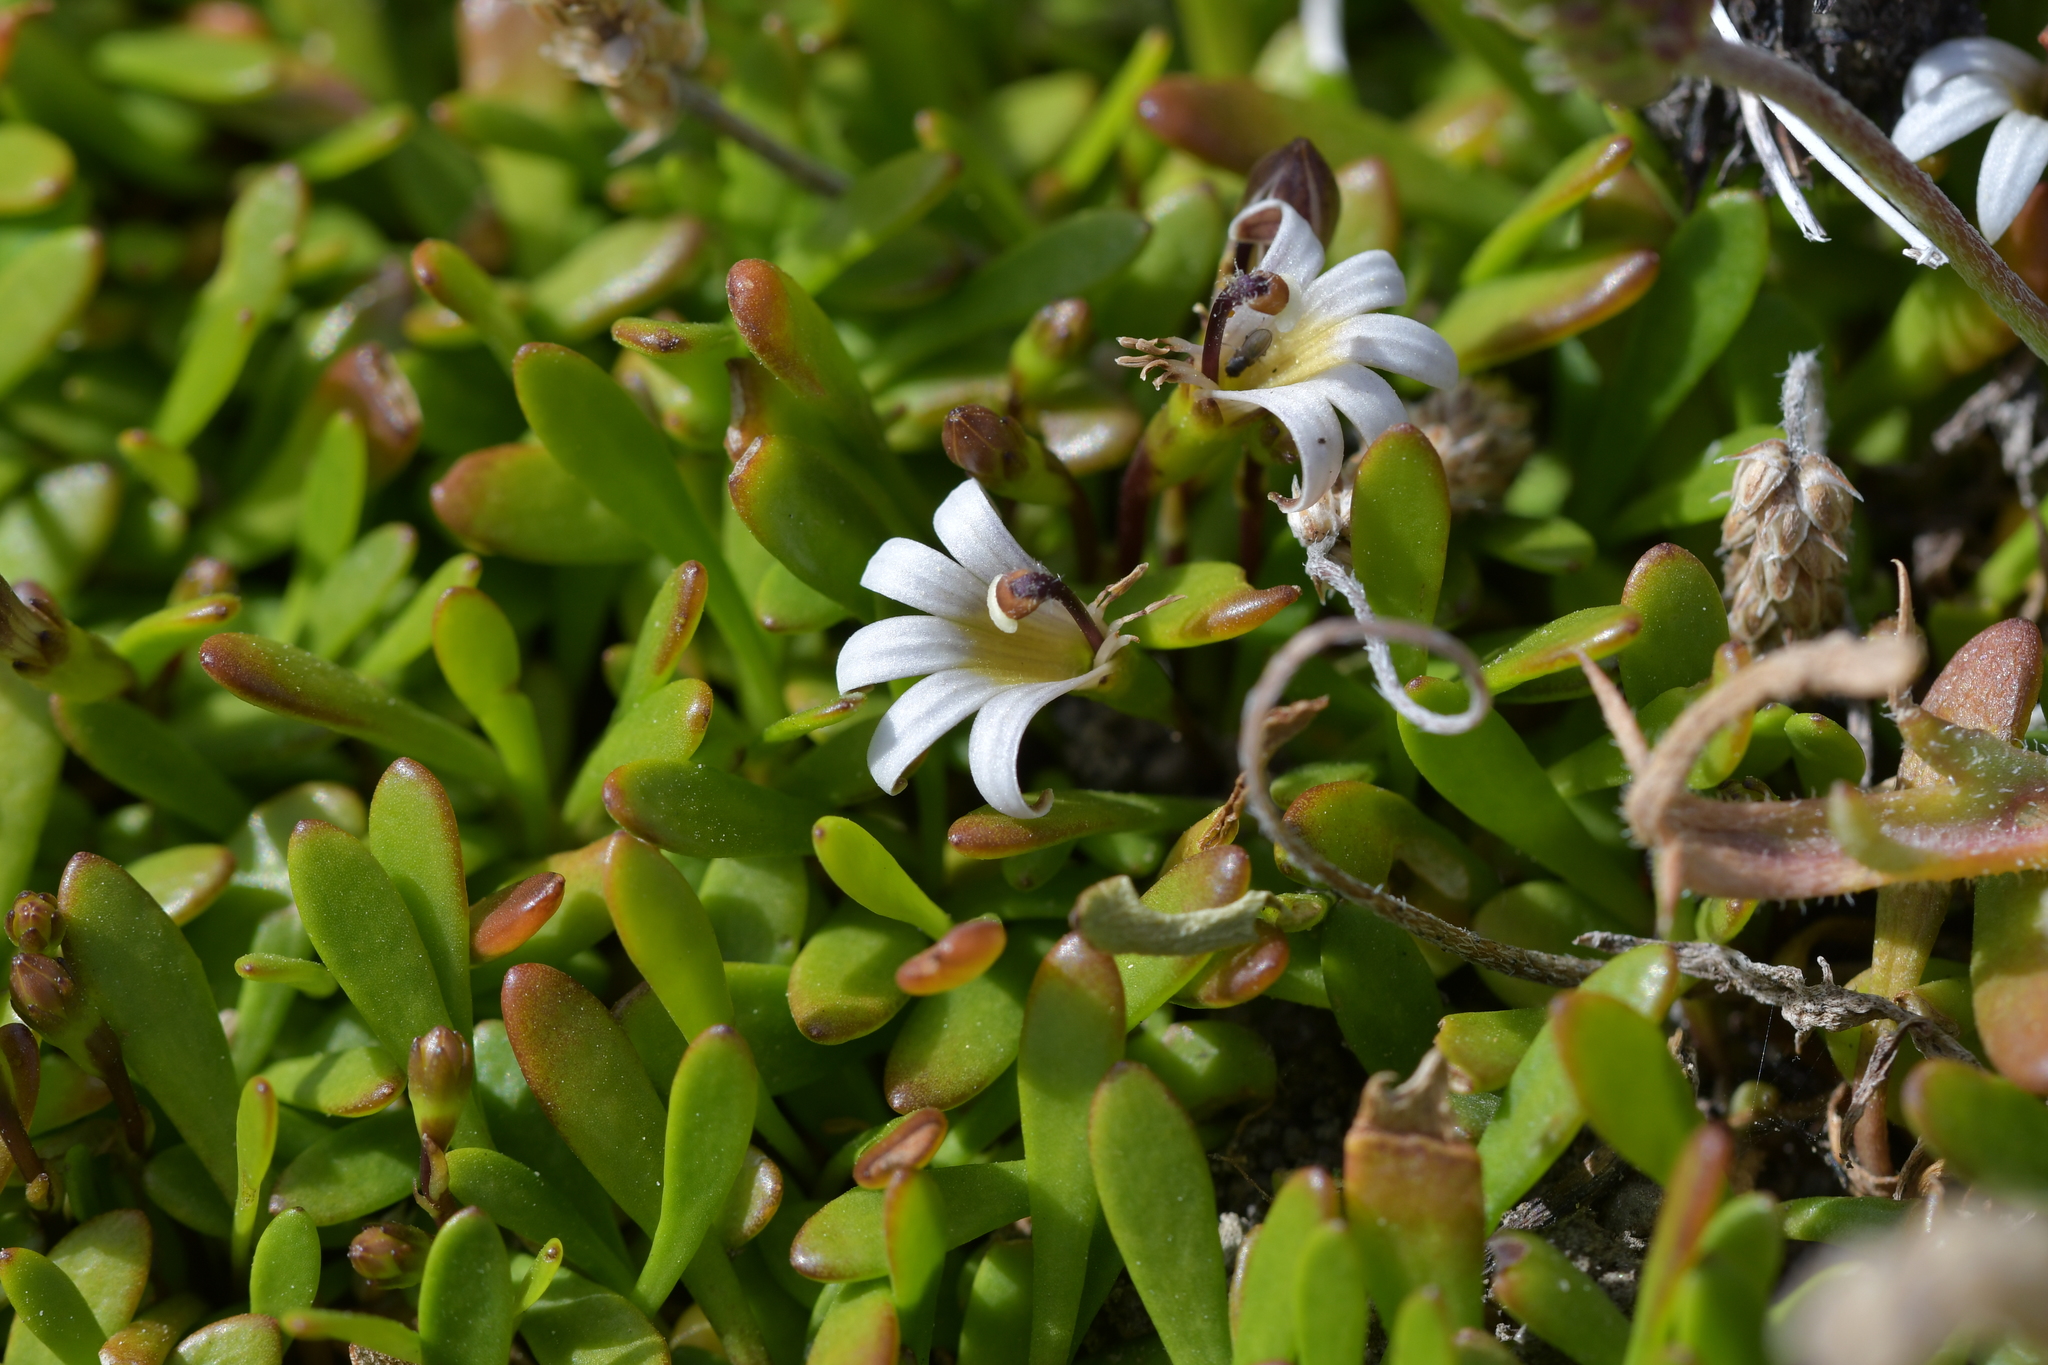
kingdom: Plantae
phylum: Tracheophyta
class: Magnoliopsida
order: Asterales
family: Goodeniaceae
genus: Goodenia
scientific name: Goodenia radicans
